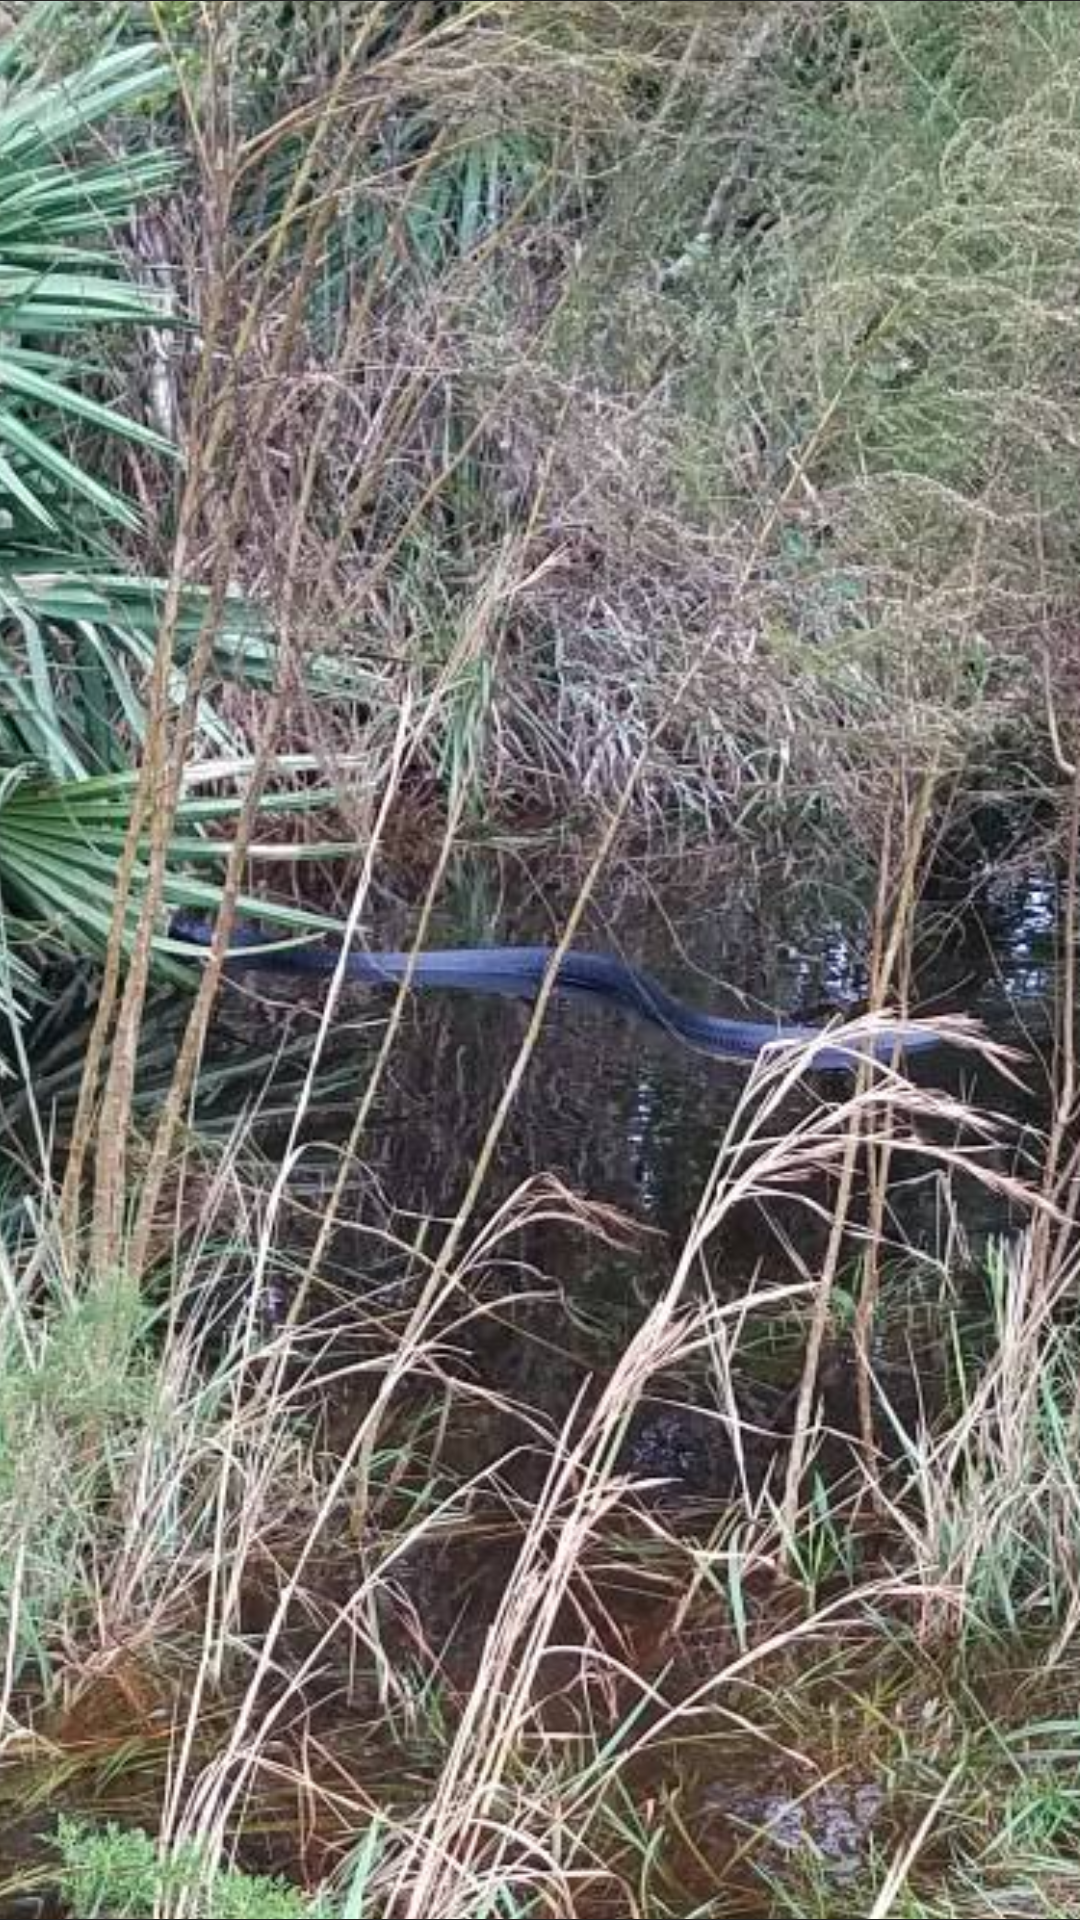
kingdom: Animalia
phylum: Chordata
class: Squamata
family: Colubridae
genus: Drymarchon
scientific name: Drymarchon couperi
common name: Eastern indigo snake
